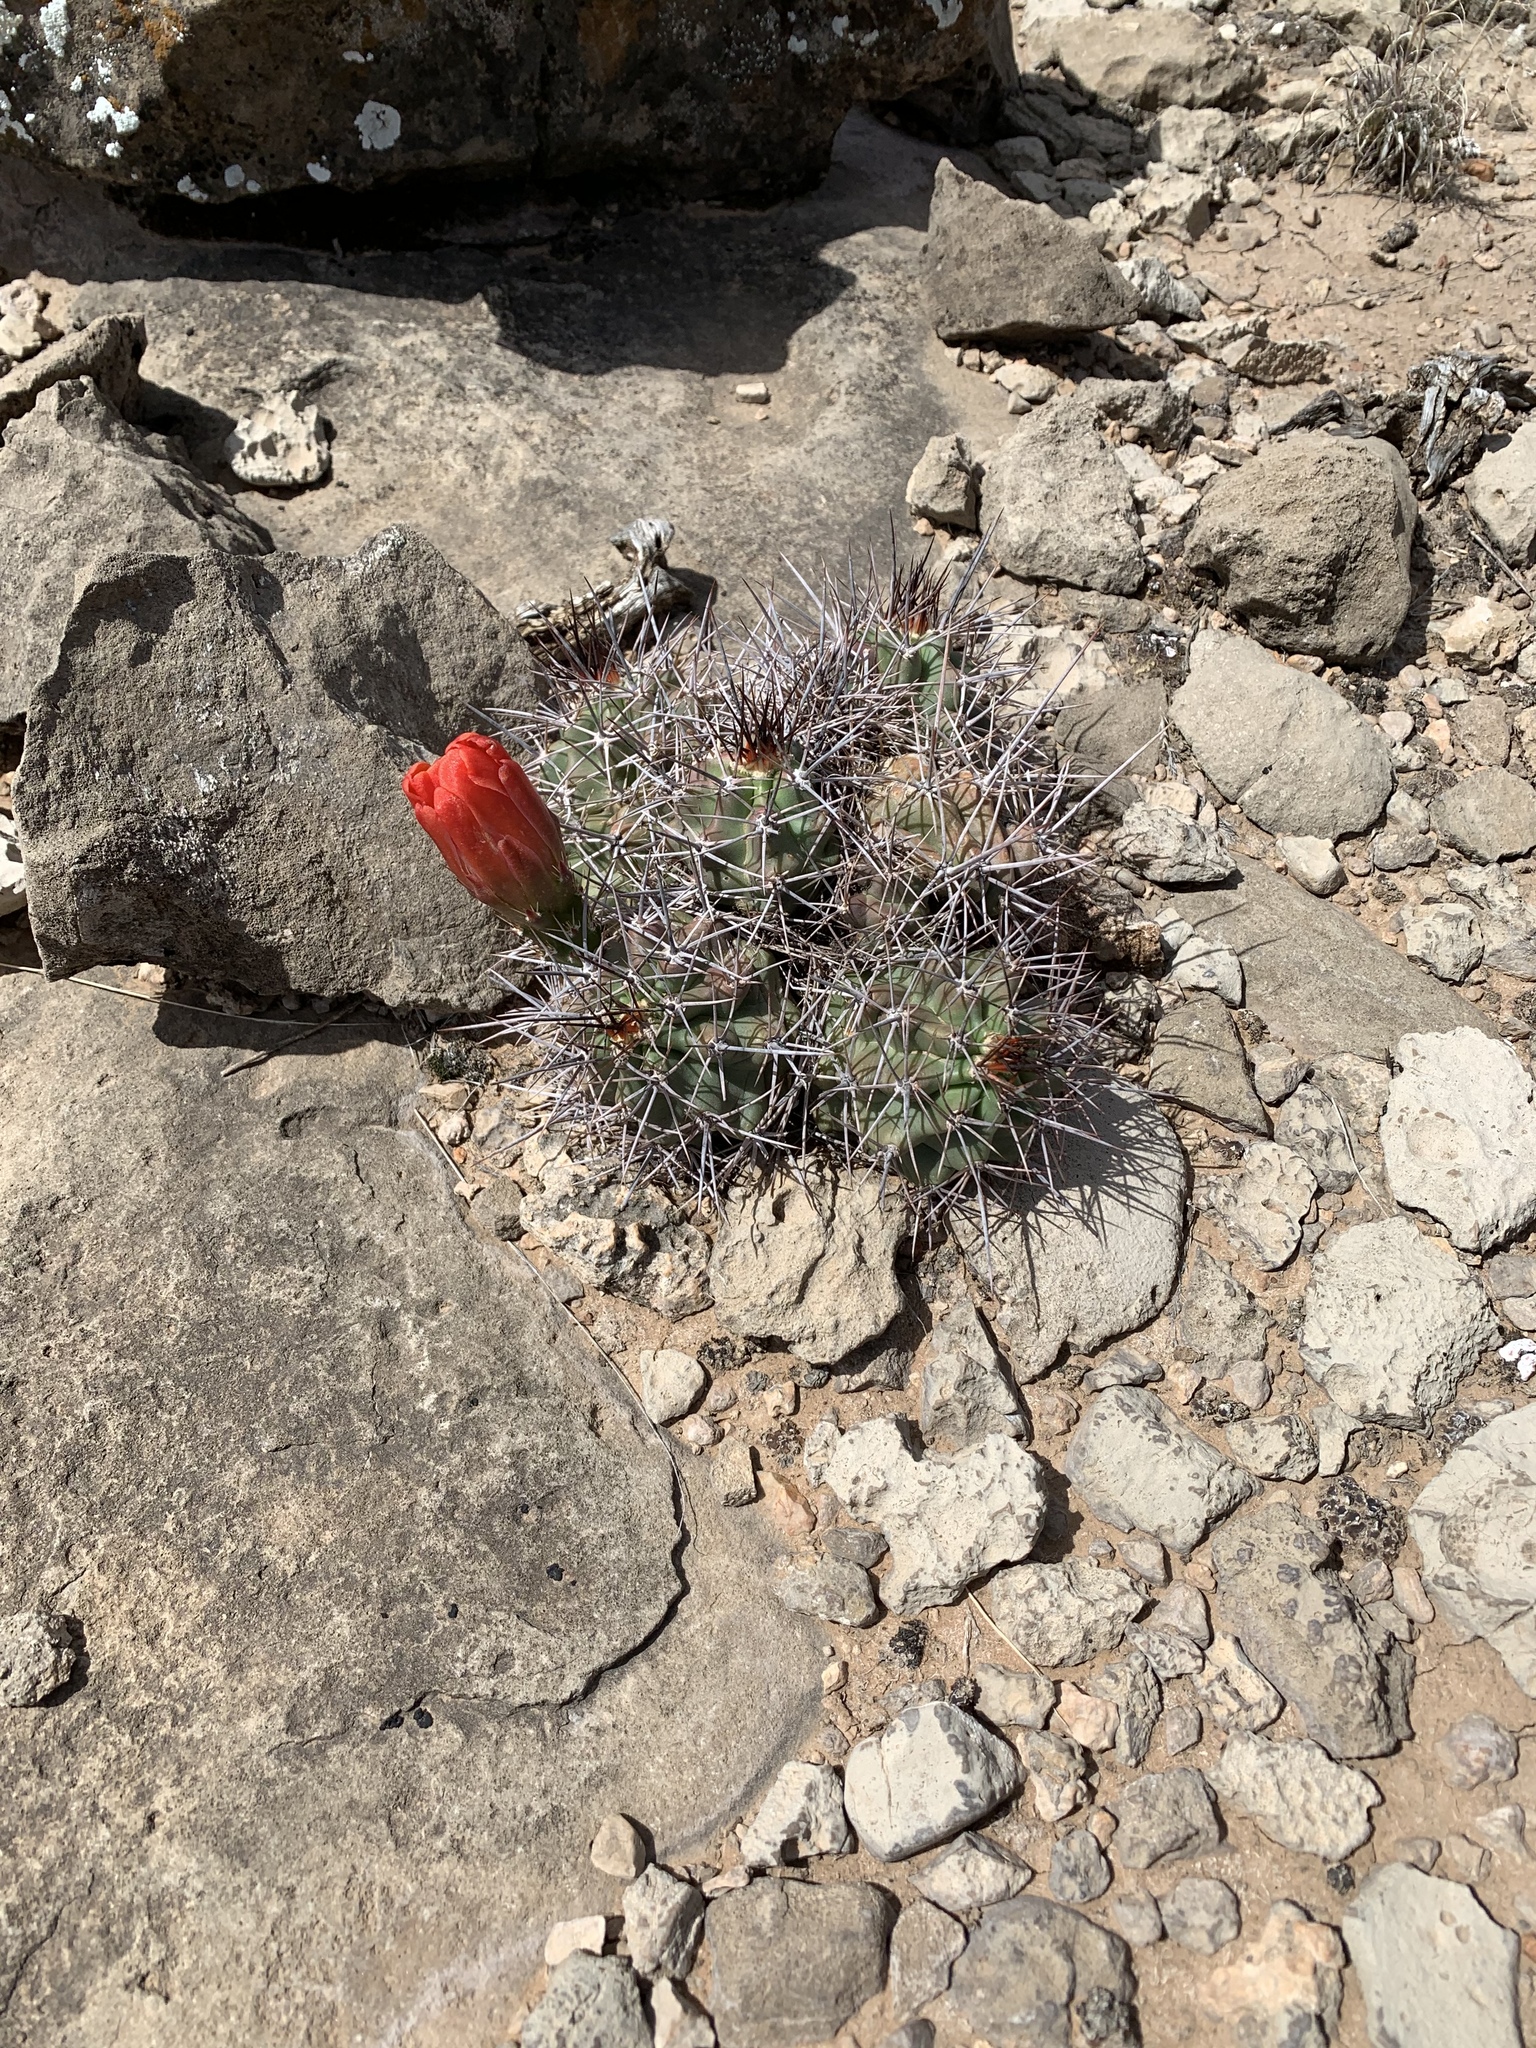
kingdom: Plantae
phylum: Tracheophyta
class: Magnoliopsida
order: Caryophyllales
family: Cactaceae
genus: Echinocereus
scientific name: Echinocereus coccineus
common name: Scarlet hedgehog cactus
